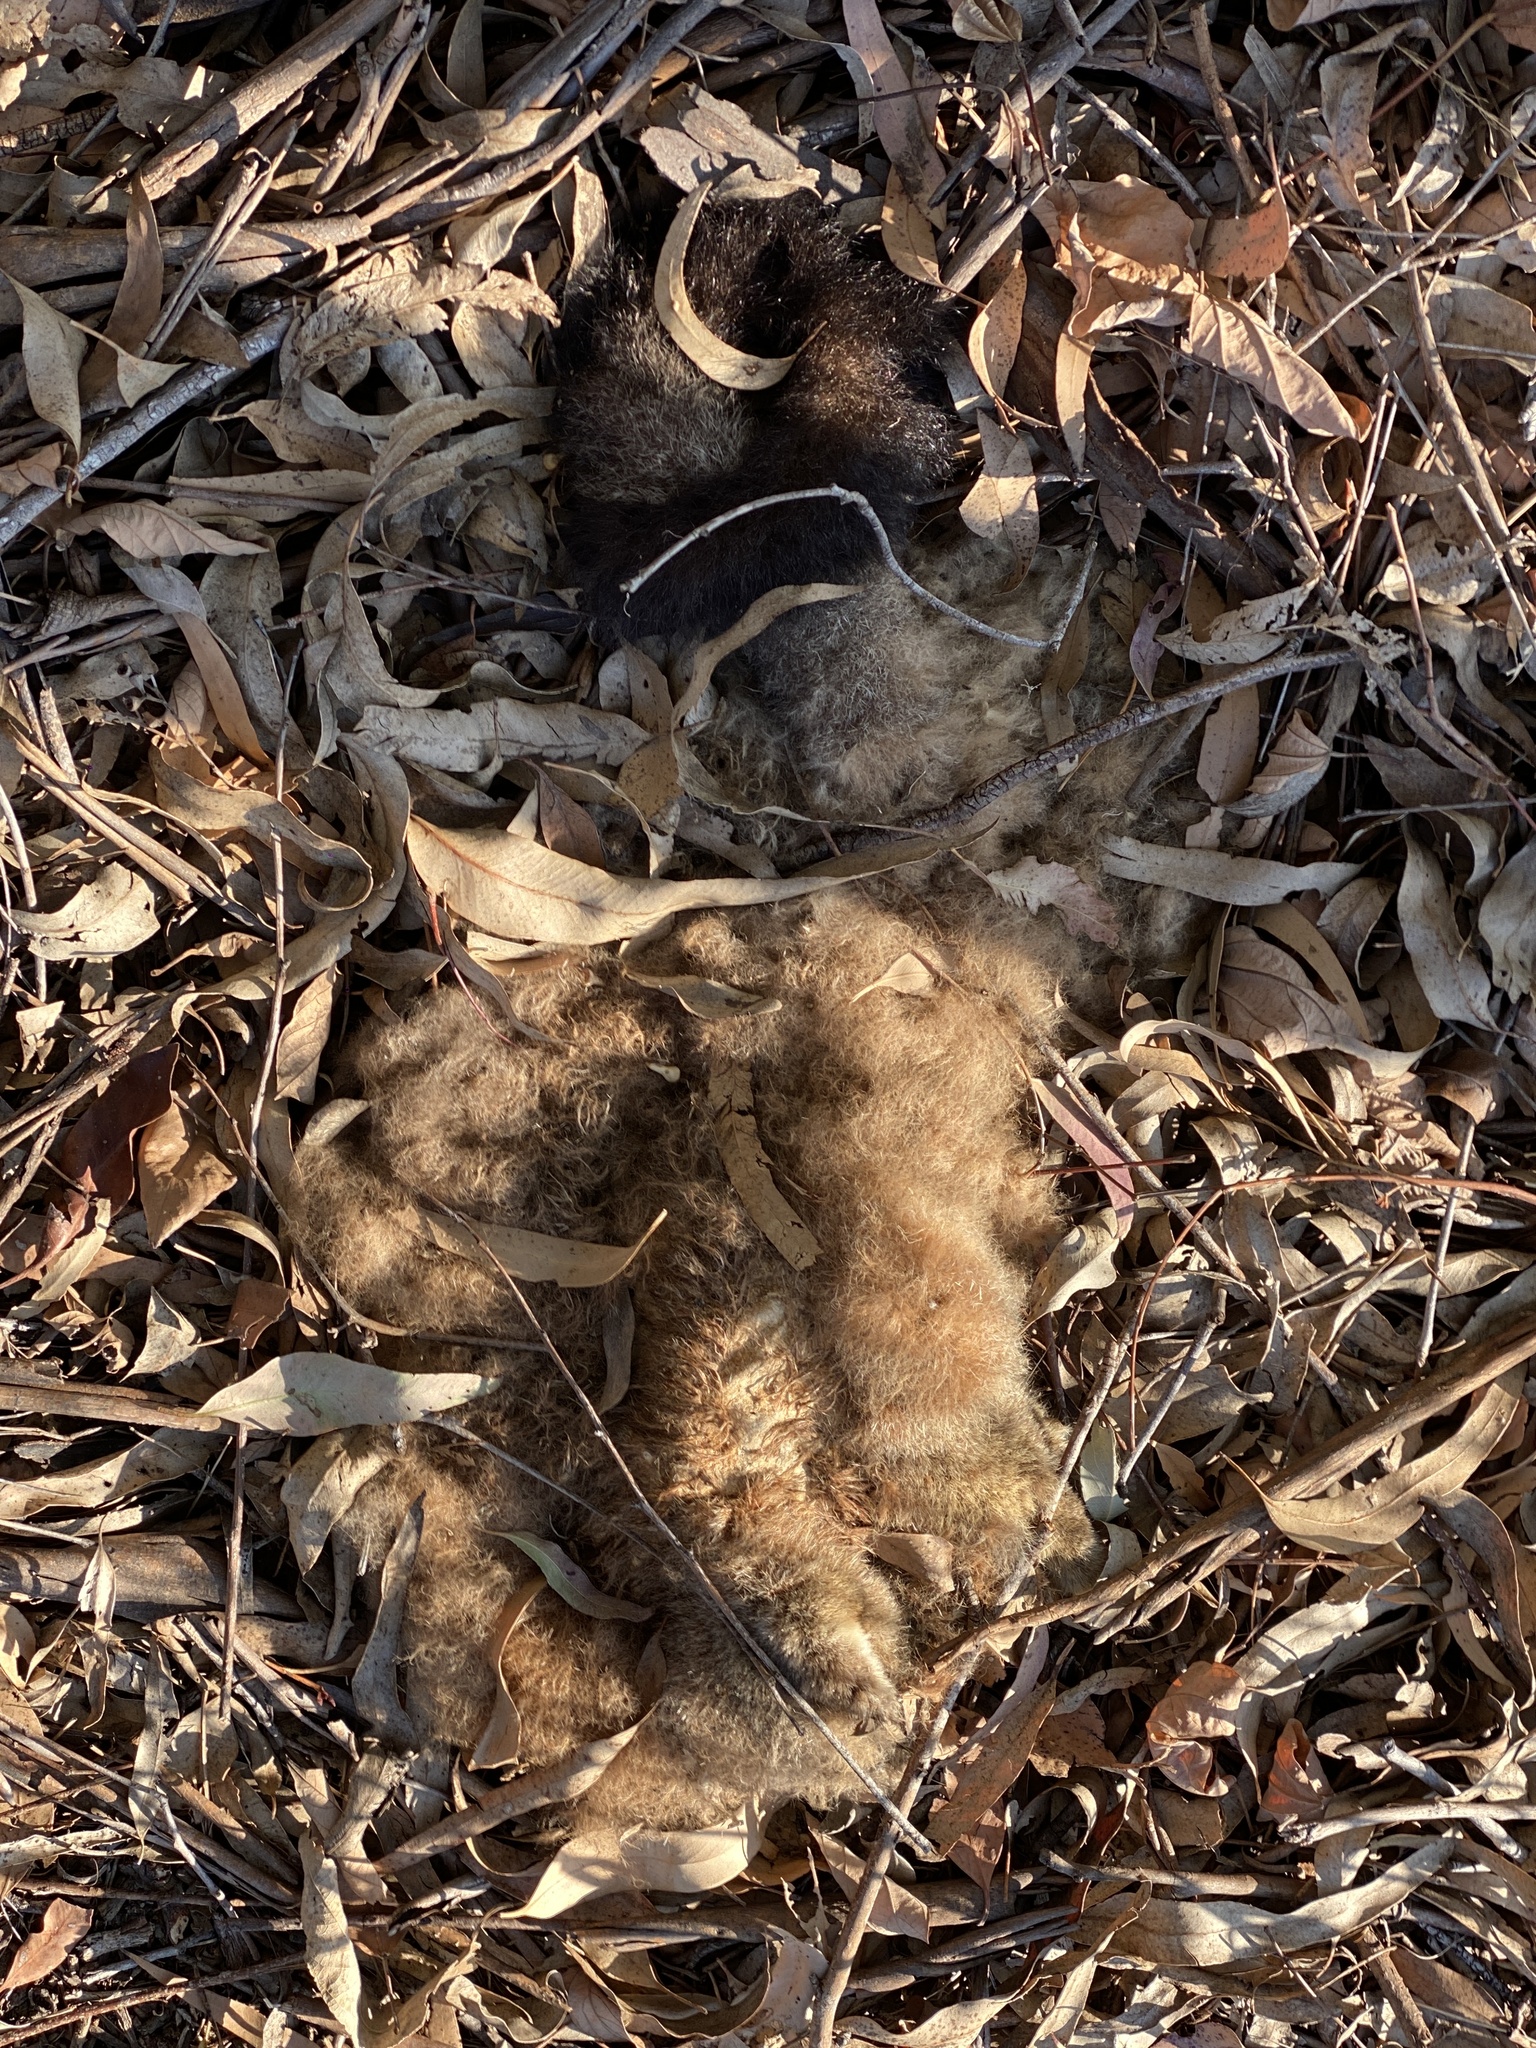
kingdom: Animalia
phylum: Chordata
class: Mammalia
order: Diprotodontia
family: Phalangeridae
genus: Trichosurus
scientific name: Trichosurus vulpecula
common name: Common brushtail
